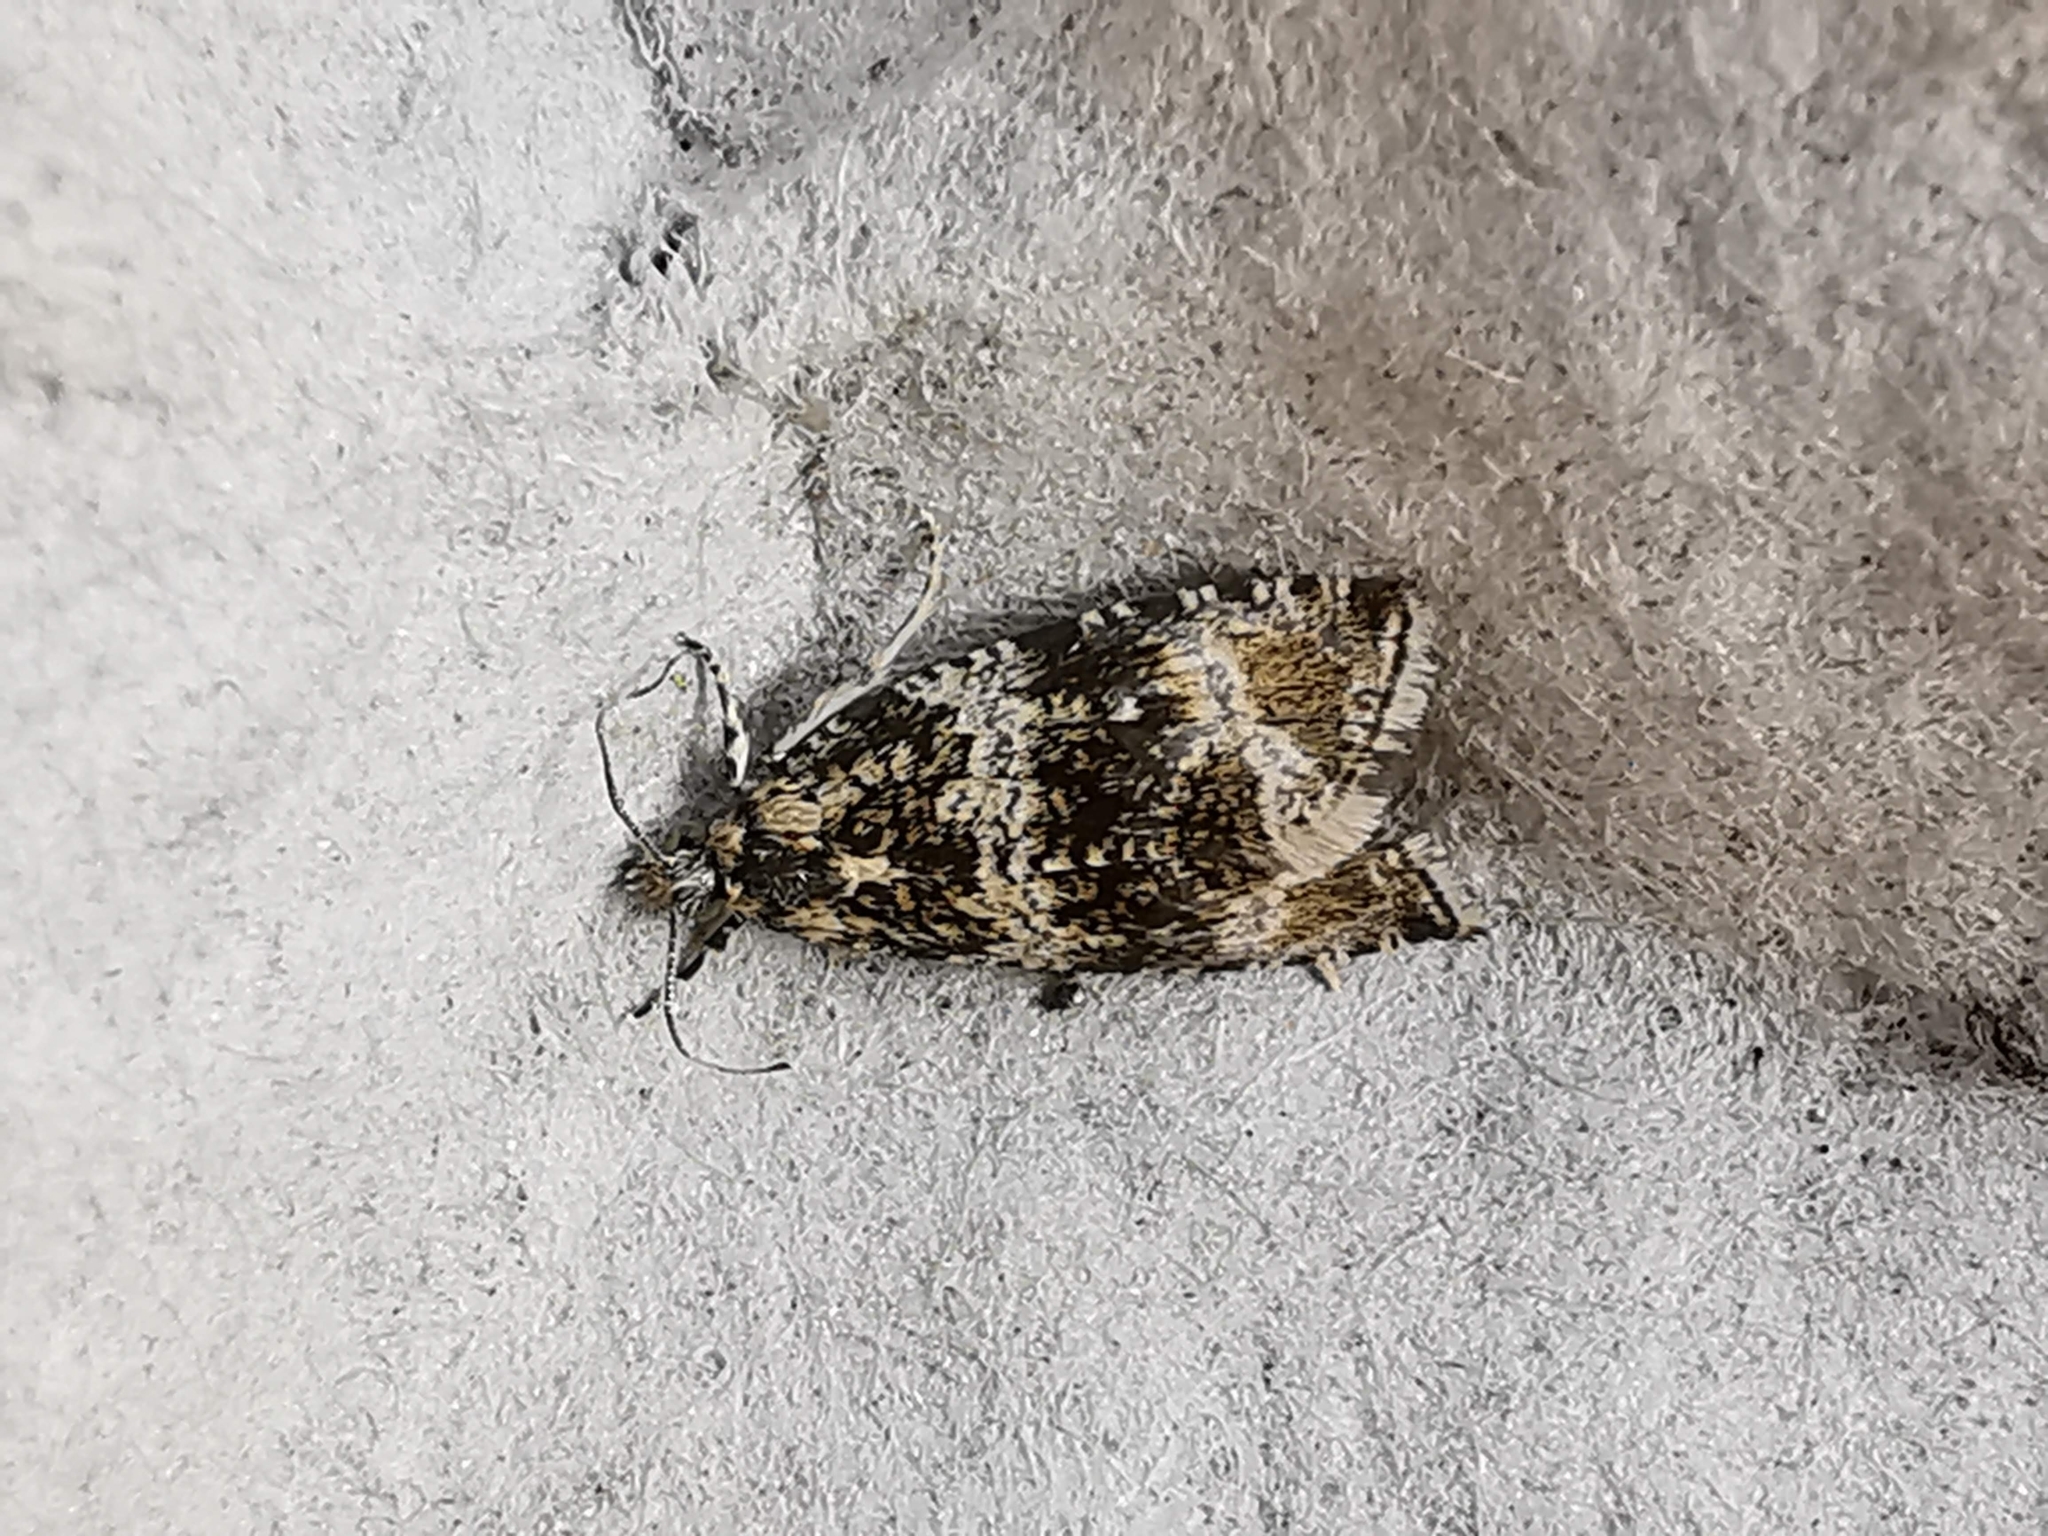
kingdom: Animalia
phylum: Arthropoda
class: Insecta
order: Lepidoptera
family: Tortricidae
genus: Syricoris
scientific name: Syricoris lacunana
